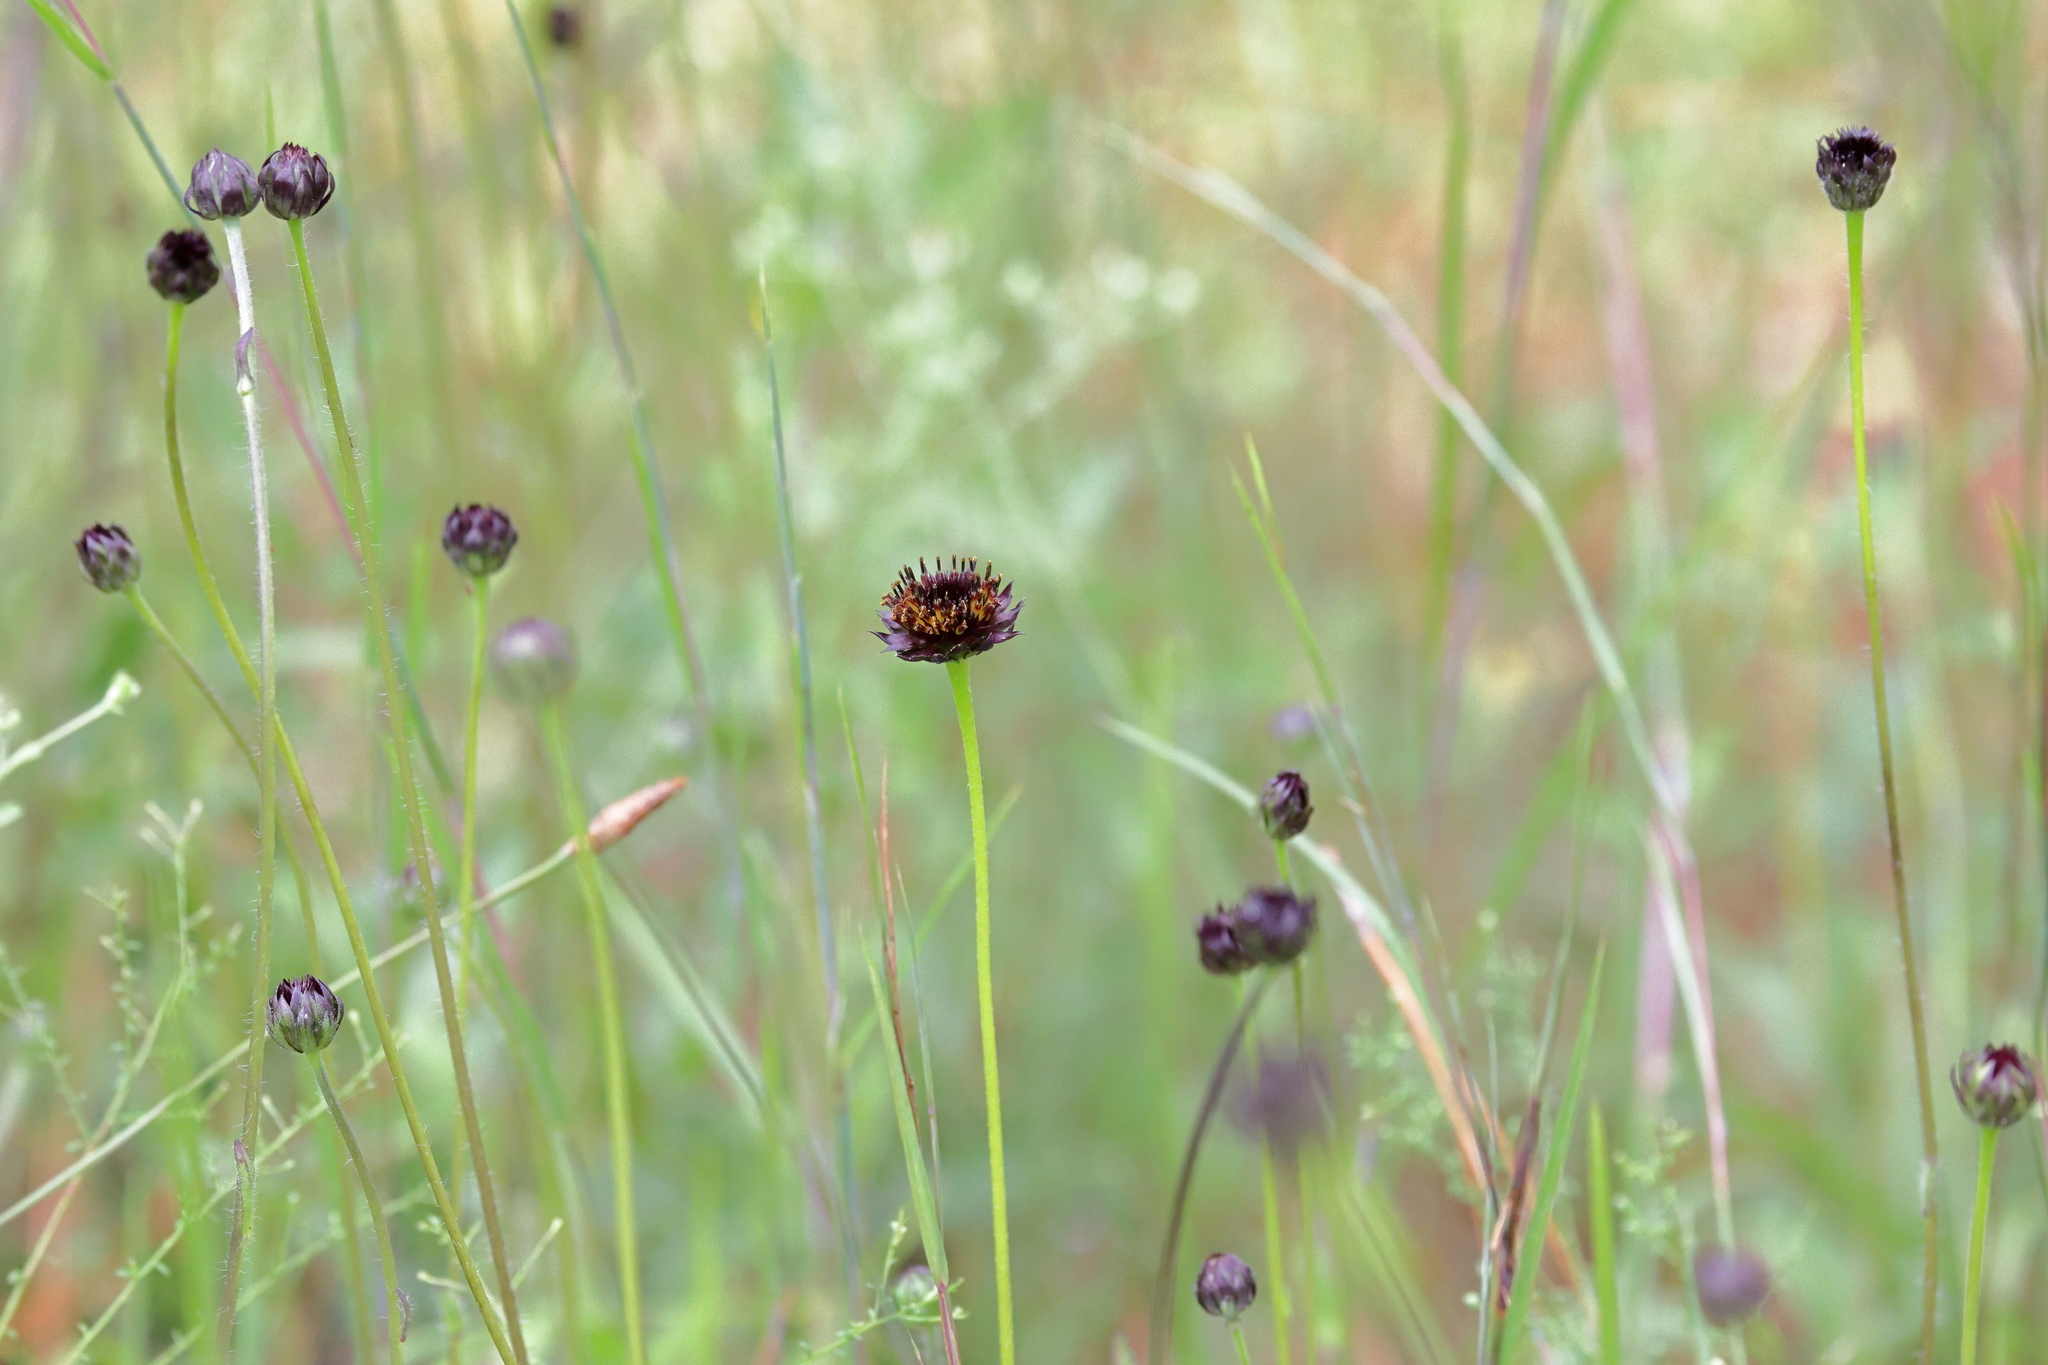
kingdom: Plantae
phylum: Tracheophyta
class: Magnoliopsida
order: Asterales
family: Asteraceae
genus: Helianthus
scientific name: Helianthus radula
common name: Pineland sunflower
